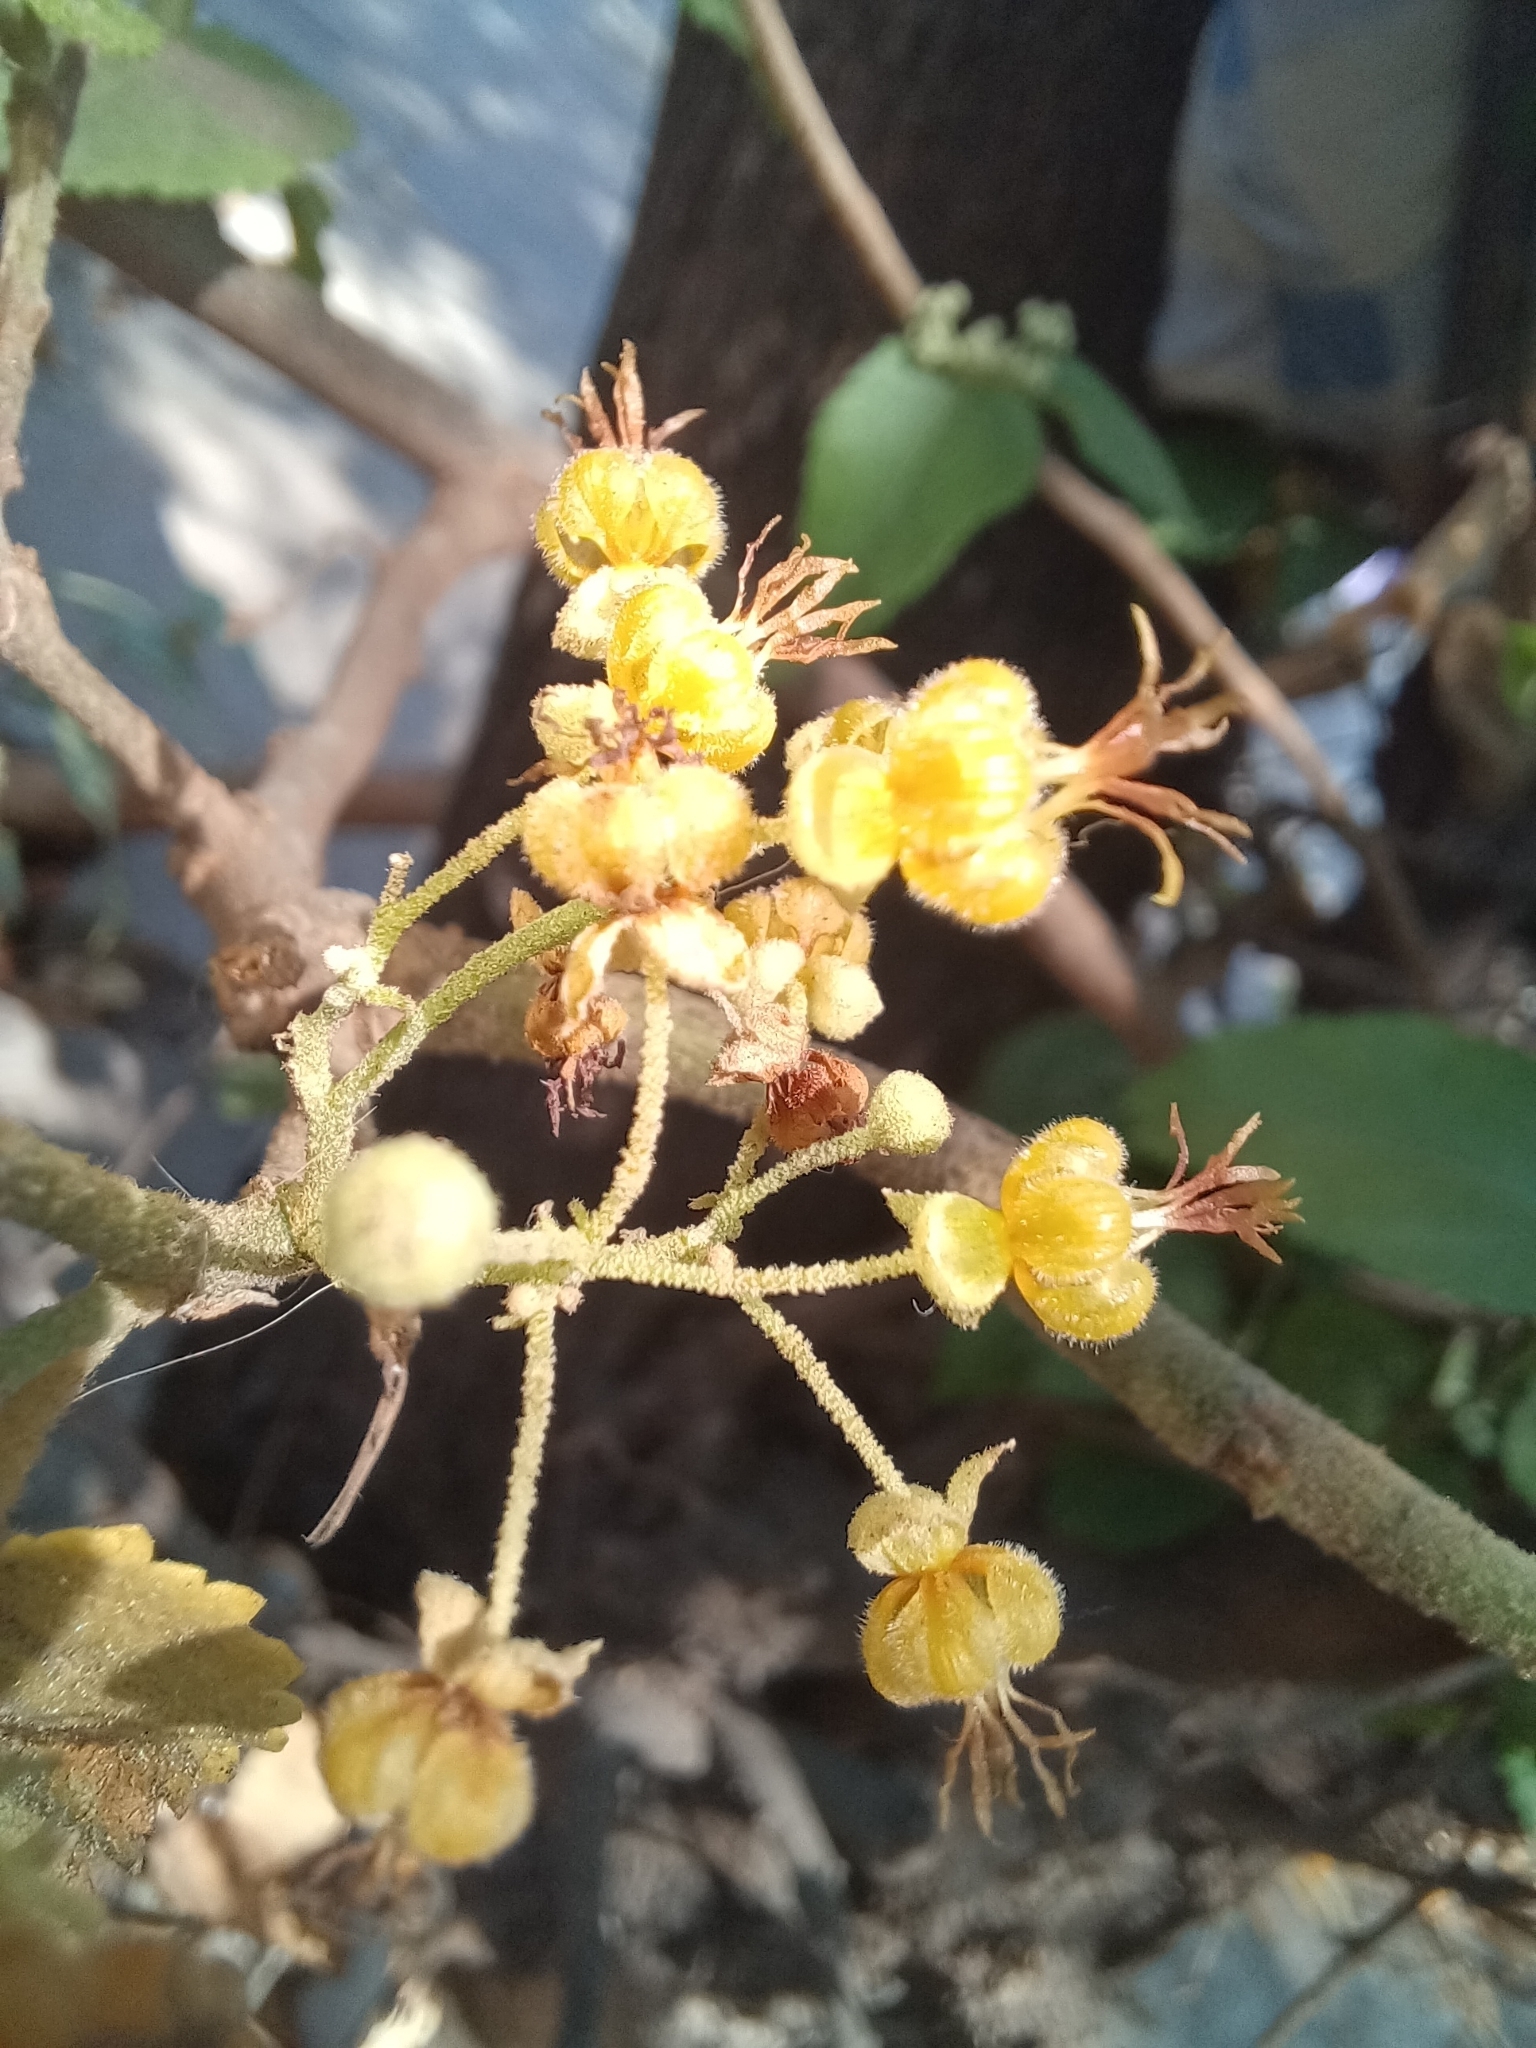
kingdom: Plantae
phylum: Tracheophyta
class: Magnoliopsida
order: Malvales
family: Malvaceae
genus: Guazuma
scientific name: Guazuma ulmifolia
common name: Bastard-cedar
